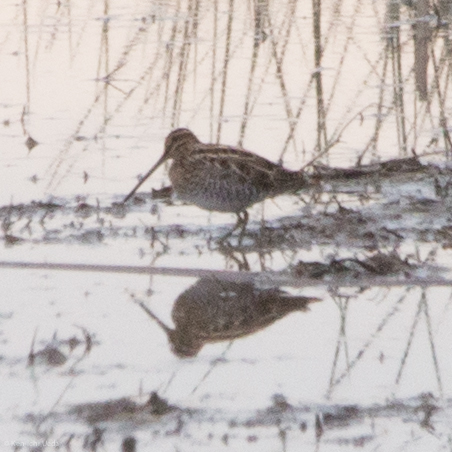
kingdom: Animalia
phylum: Chordata
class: Aves
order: Charadriiformes
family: Scolopacidae
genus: Gallinago
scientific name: Gallinago delicata
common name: Wilson's snipe
